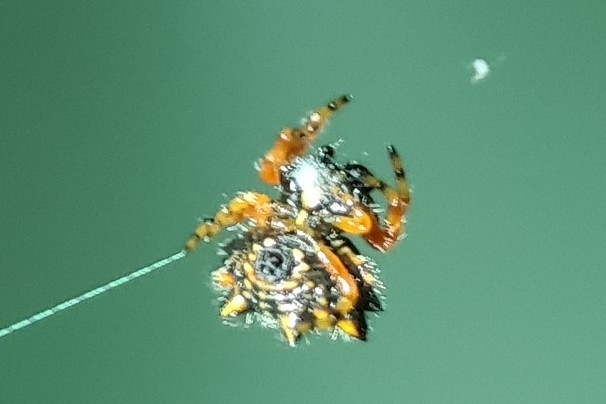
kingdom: Animalia
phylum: Arthropoda
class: Arachnida
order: Araneae
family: Araneidae
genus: Austracantha
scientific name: Austracantha minax
